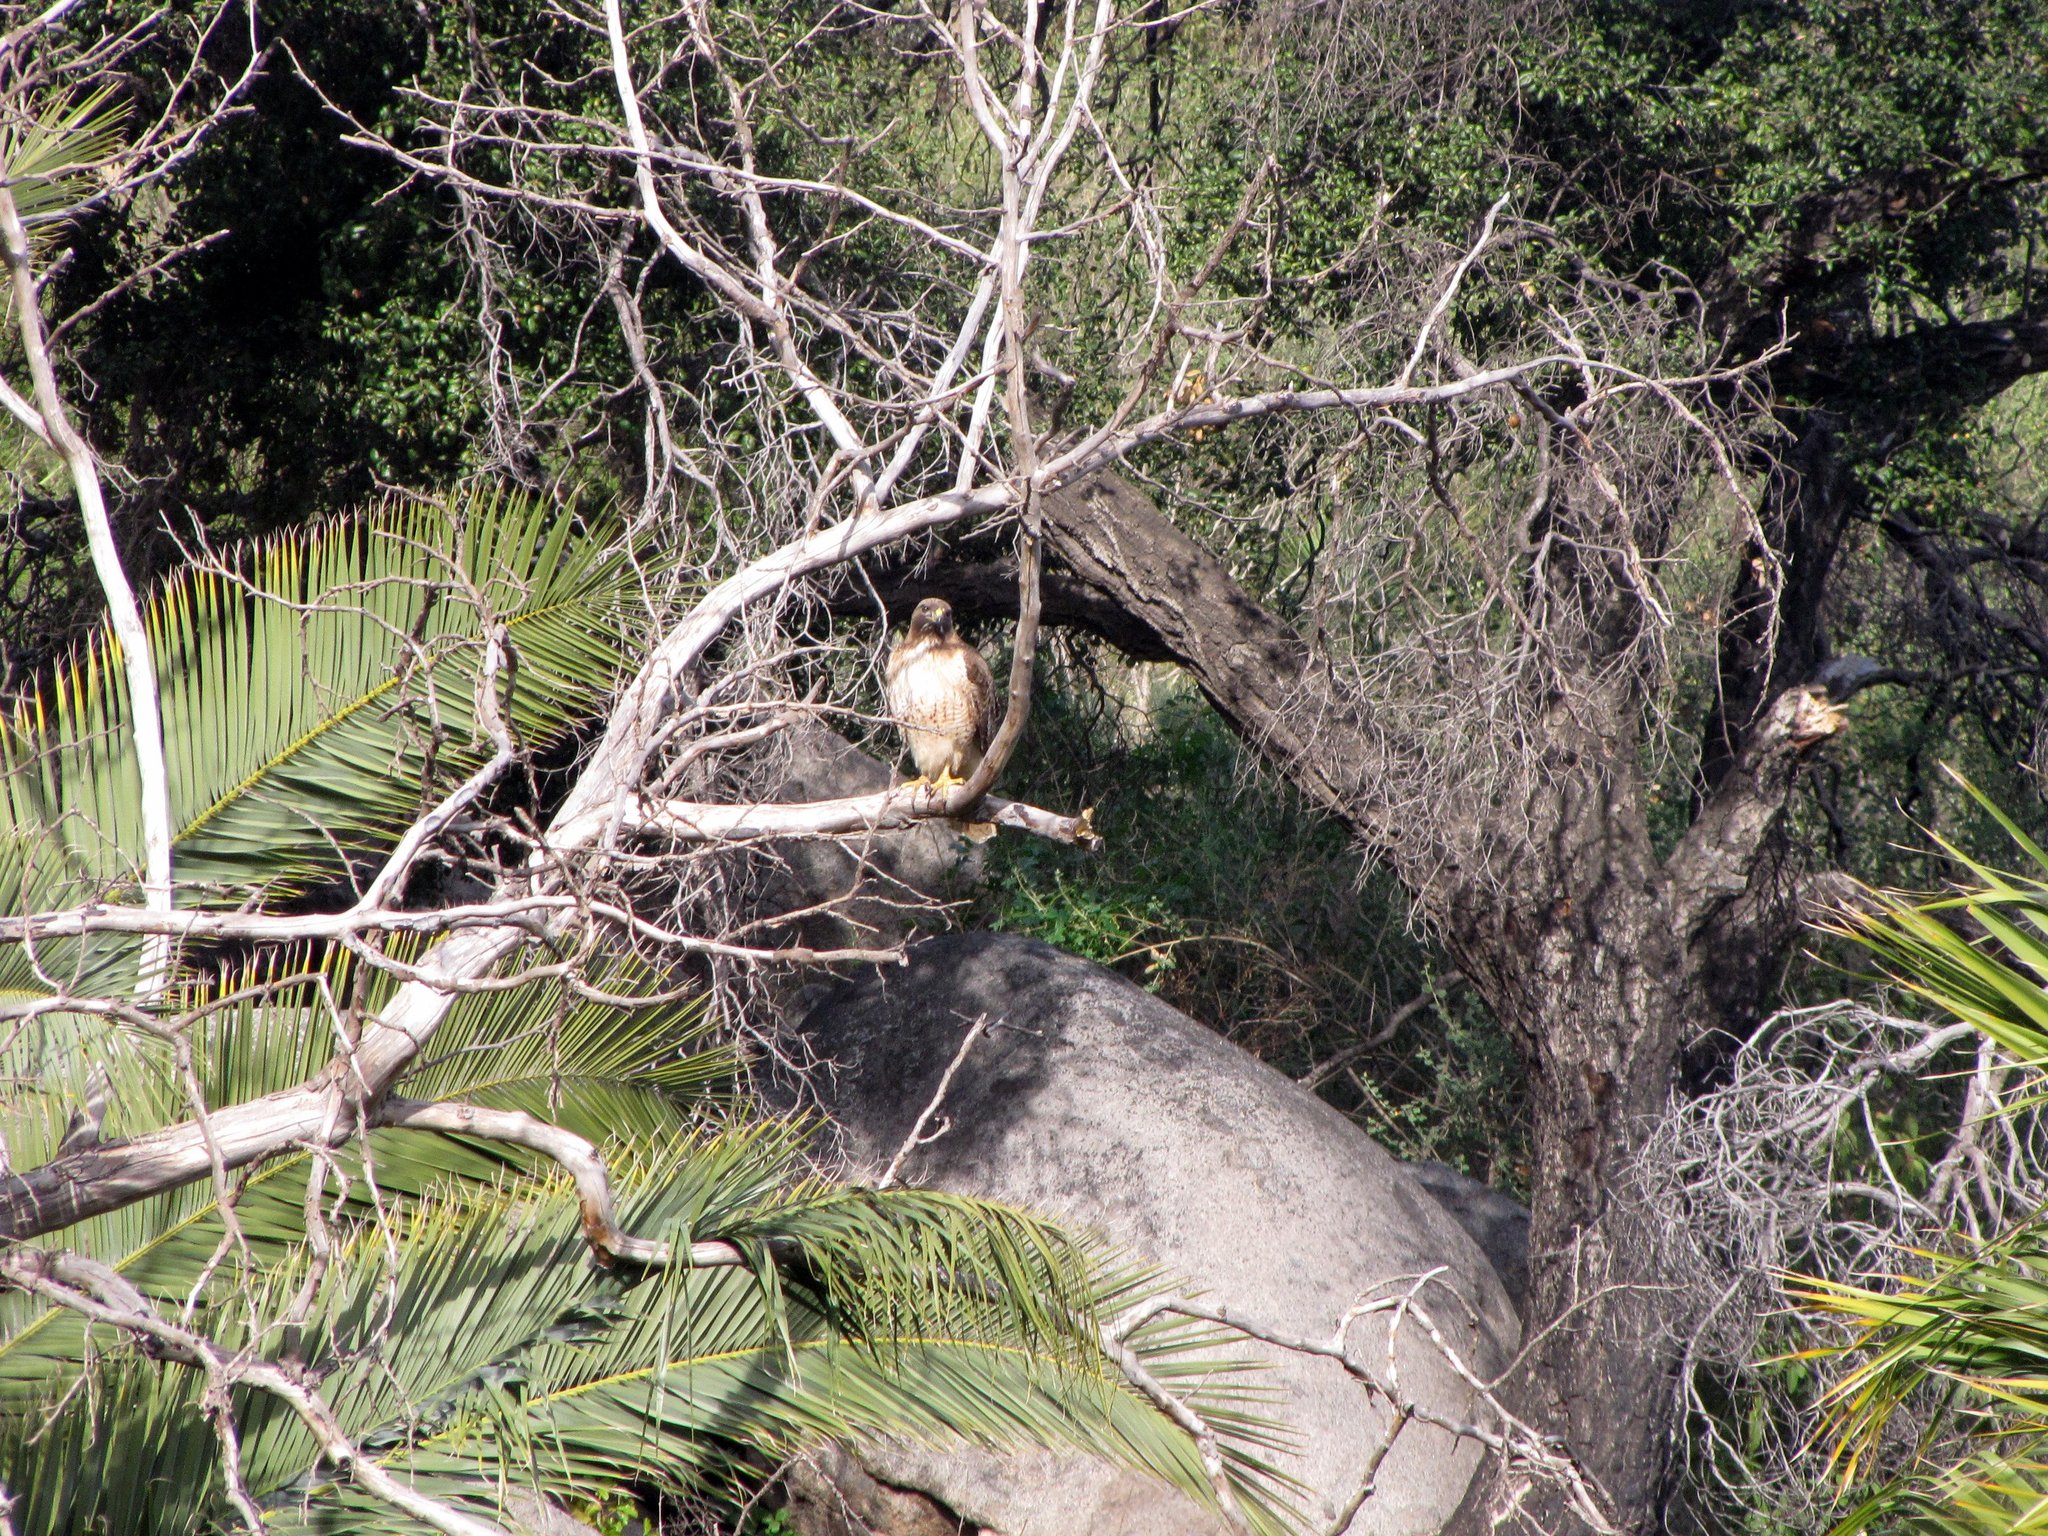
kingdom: Animalia
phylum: Chordata
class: Aves
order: Accipitriformes
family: Accipitridae
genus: Buteo
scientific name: Buteo jamaicensis
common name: Red-tailed hawk
